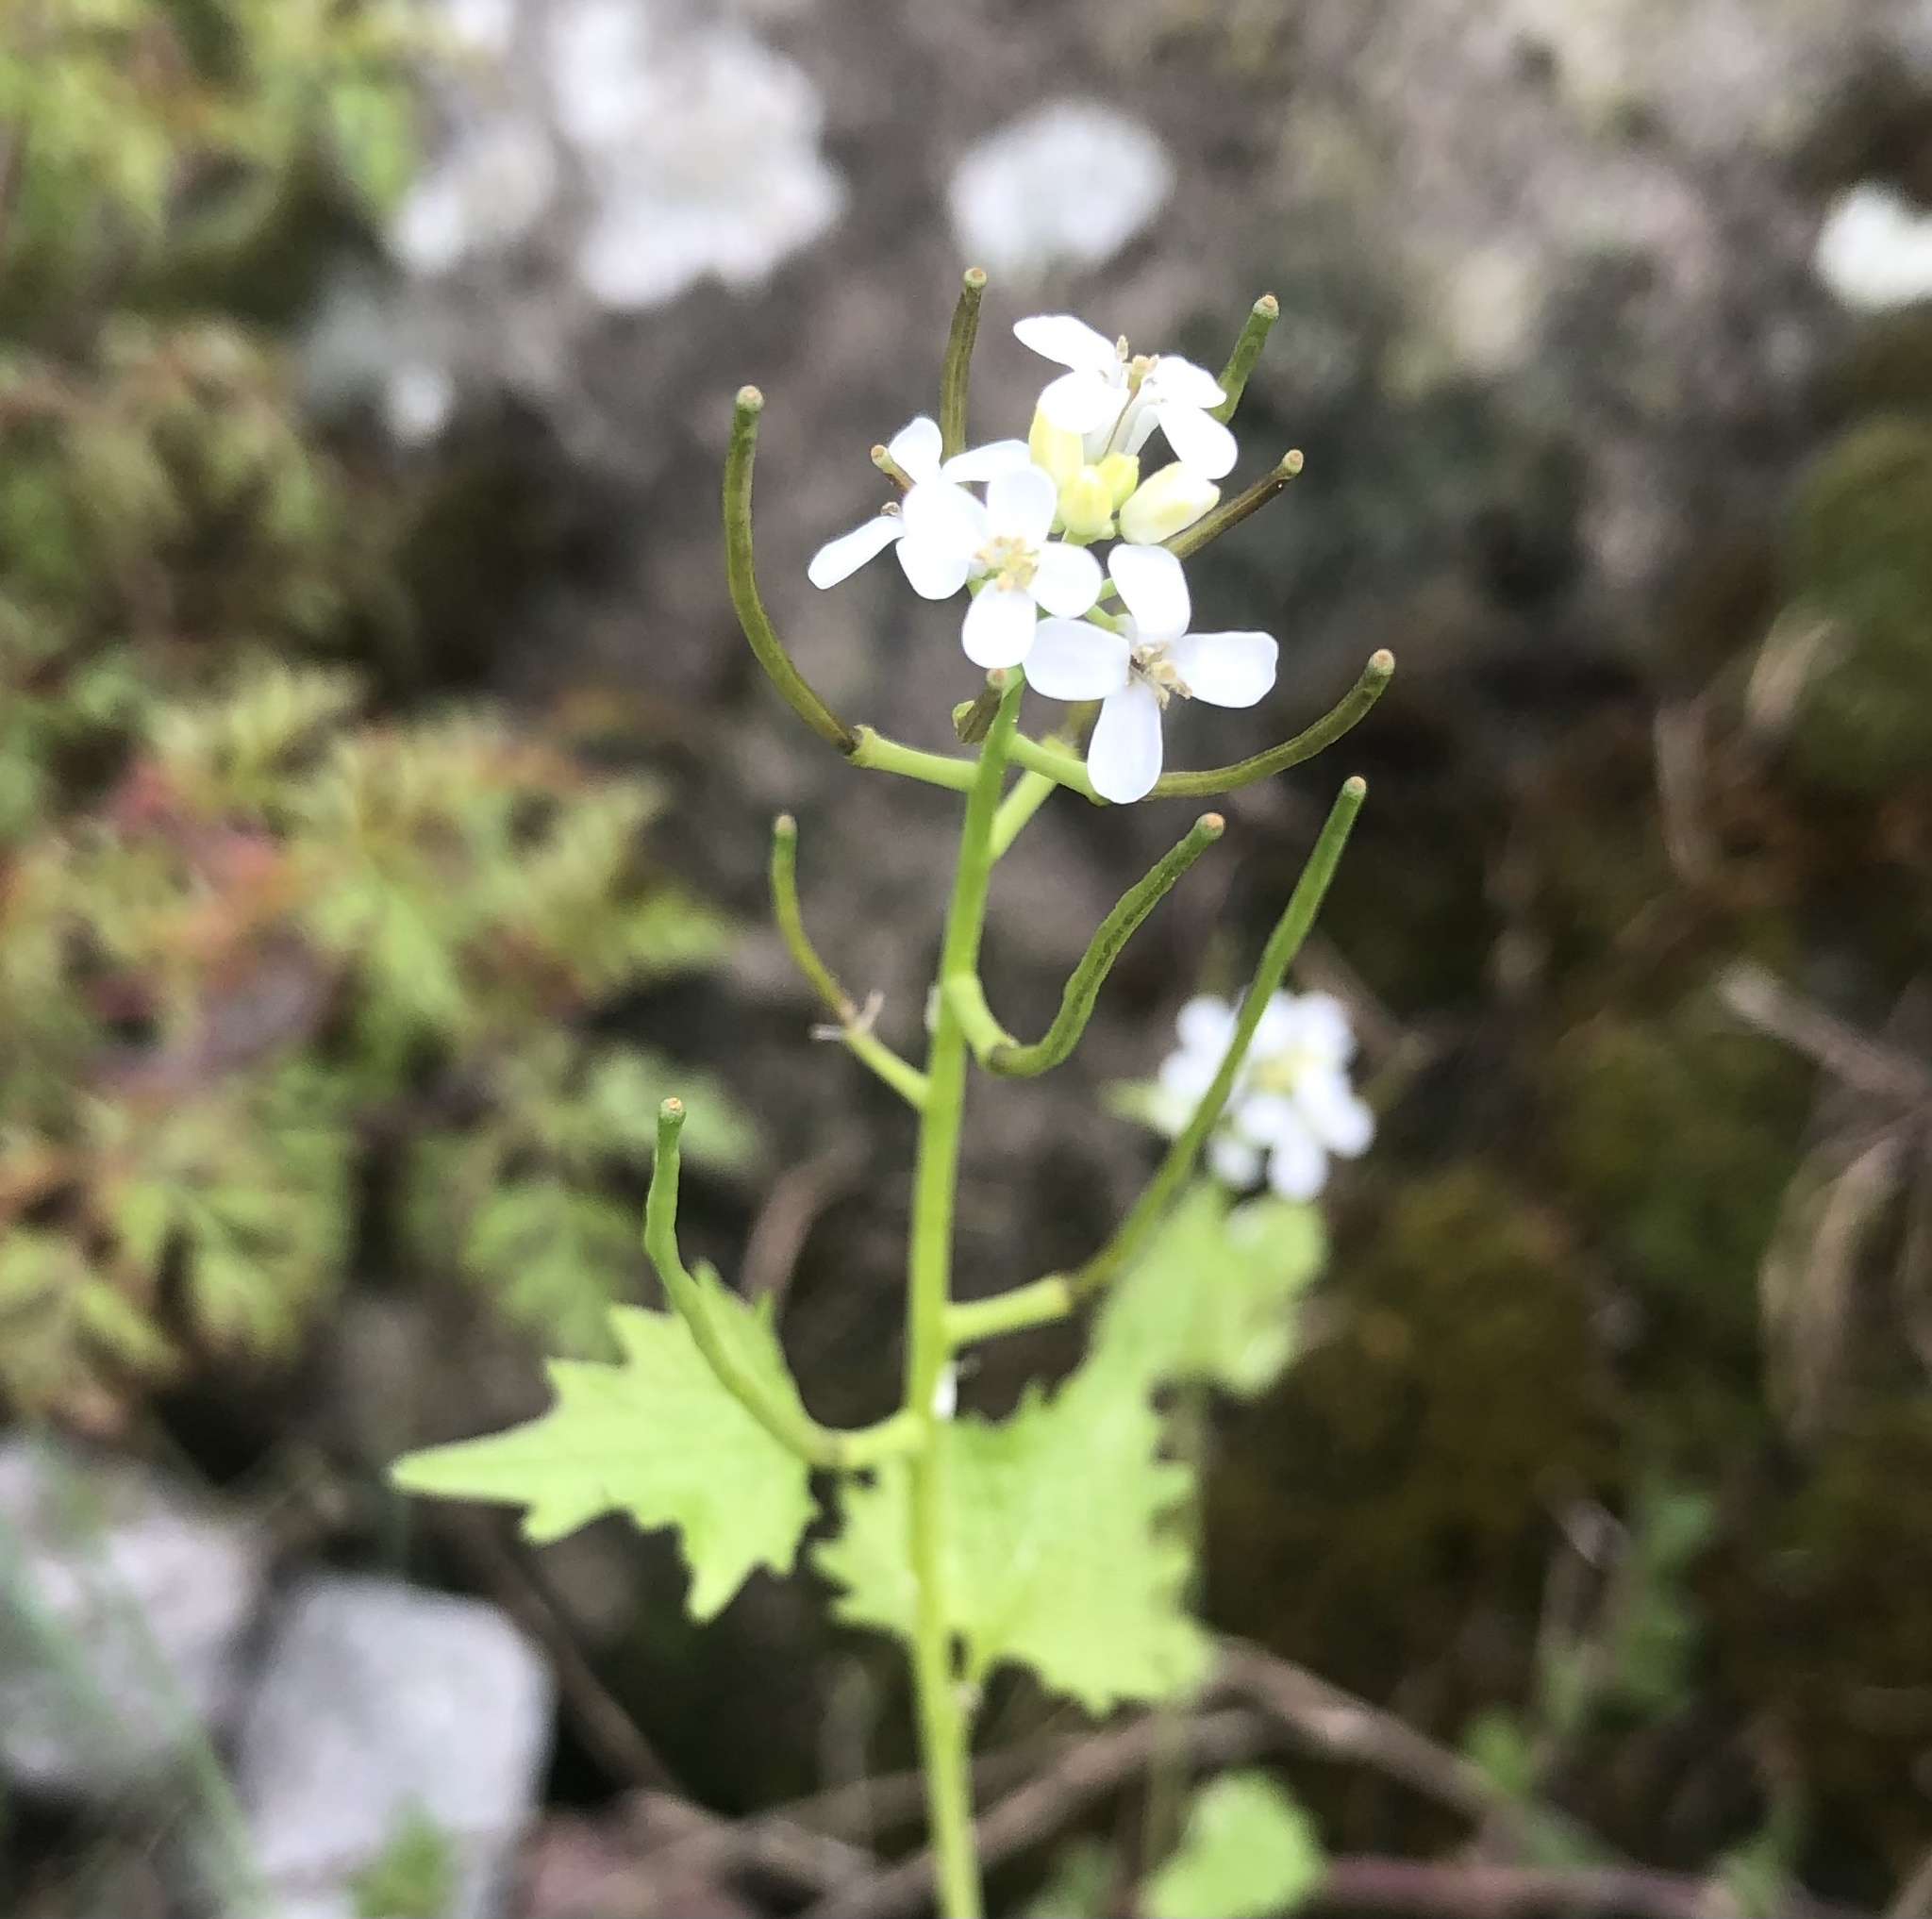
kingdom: Plantae
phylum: Tracheophyta
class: Magnoliopsida
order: Brassicales
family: Brassicaceae
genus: Alliaria
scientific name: Alliaria petiolata
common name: Garlic mustard
